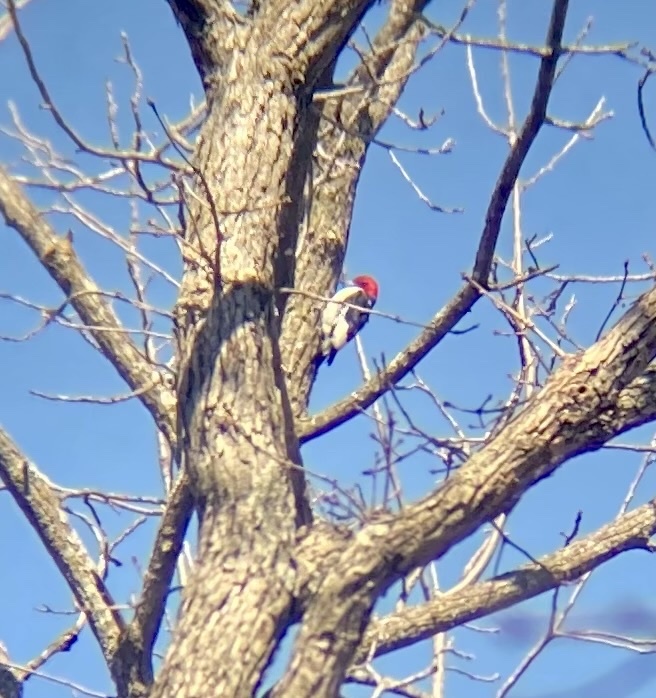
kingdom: Animalia
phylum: Chordata
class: Aves
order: Piciformes
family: Picidae
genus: Melanerpes
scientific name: Melanerpes erythrocephalus
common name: Red-headed woodpecker
